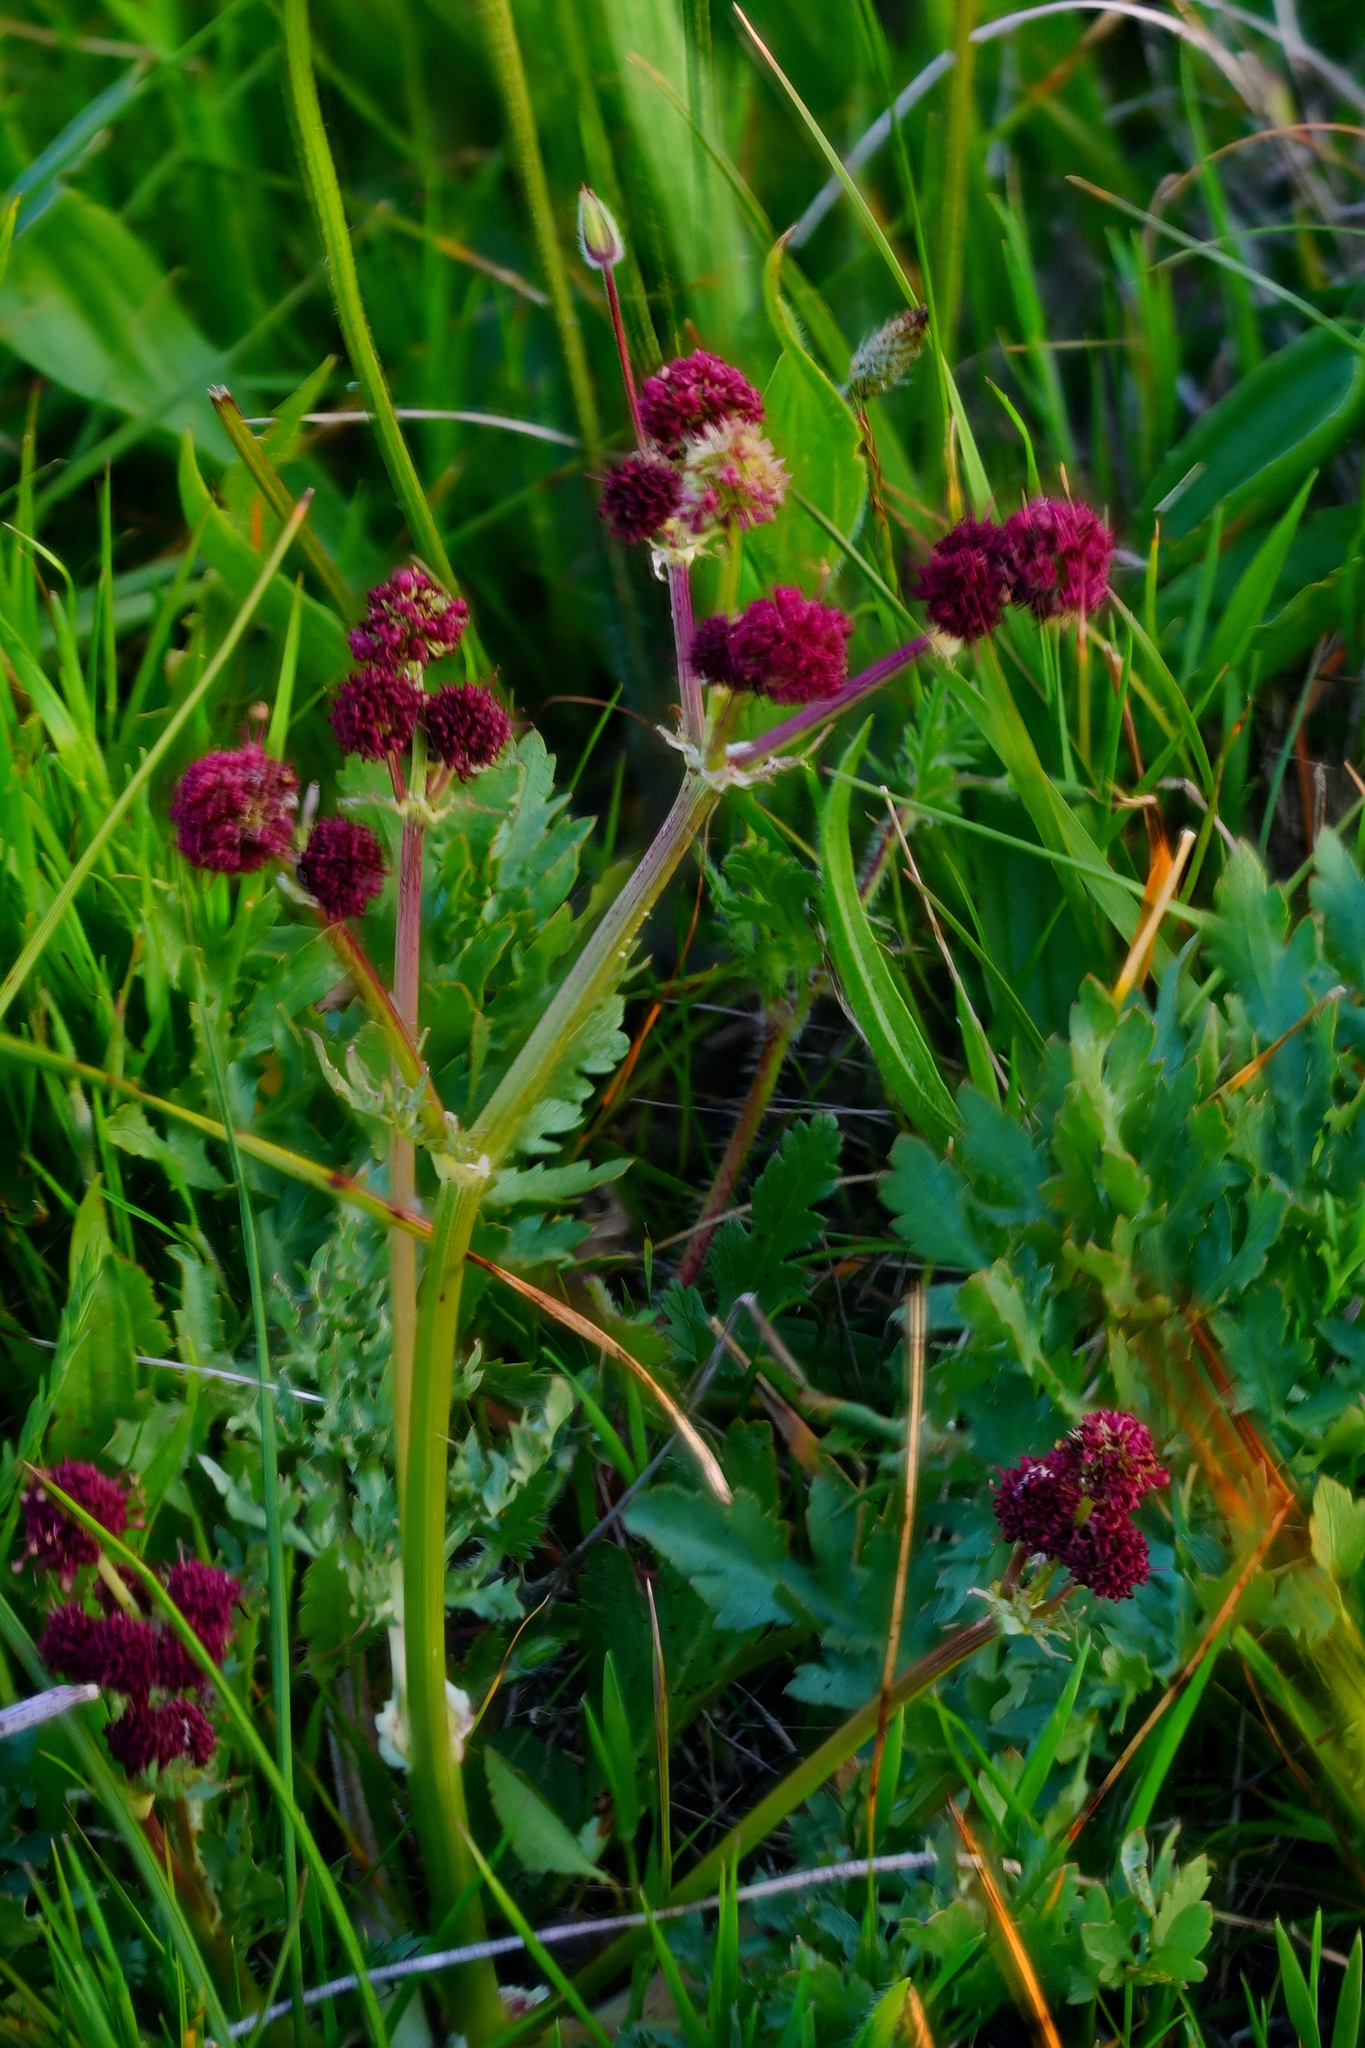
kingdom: Plantae
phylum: Tracheophyta
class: Magnoliopsida
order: Apiales
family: Apiaceae
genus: Sanicula
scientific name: Sanicula bipinnatifida
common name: Shoe-buttons
